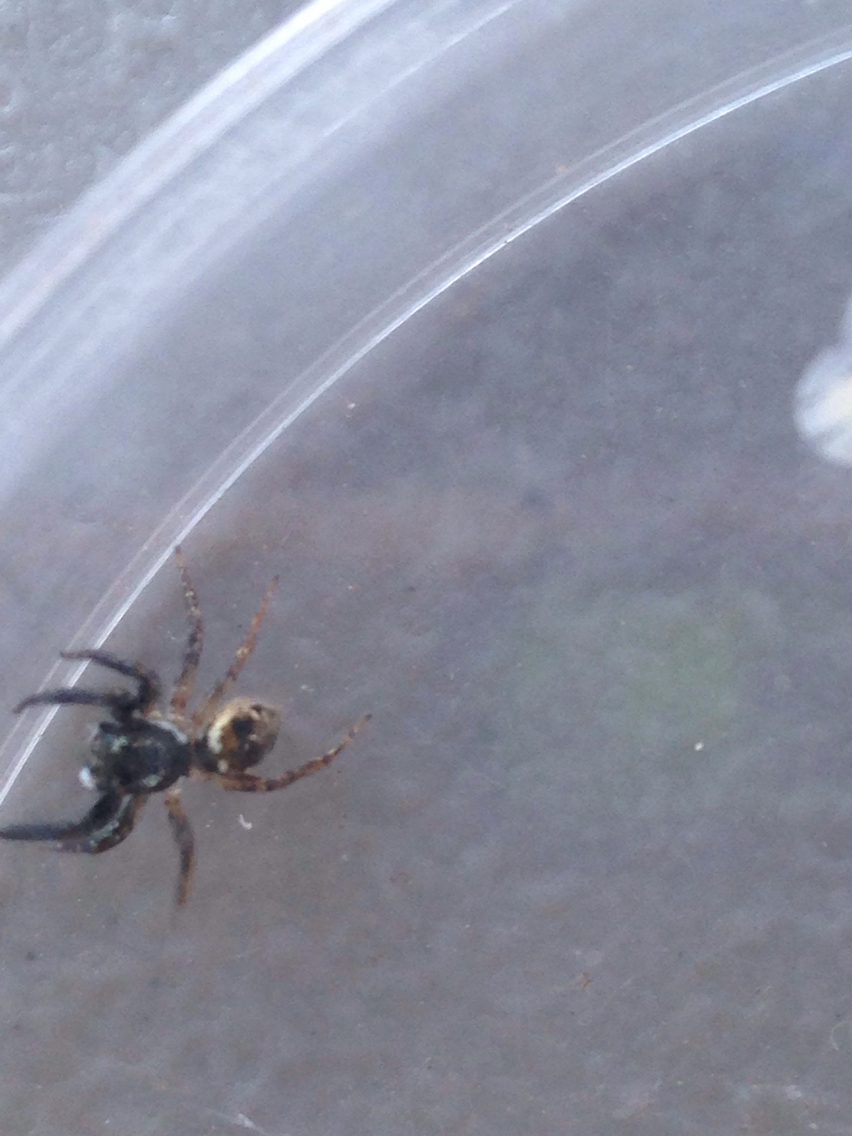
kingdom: Animalia
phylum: Arthropoda
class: Arachnida
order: Araneae
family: Salticidae
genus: Anasaitis
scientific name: Anasaitis canosa
